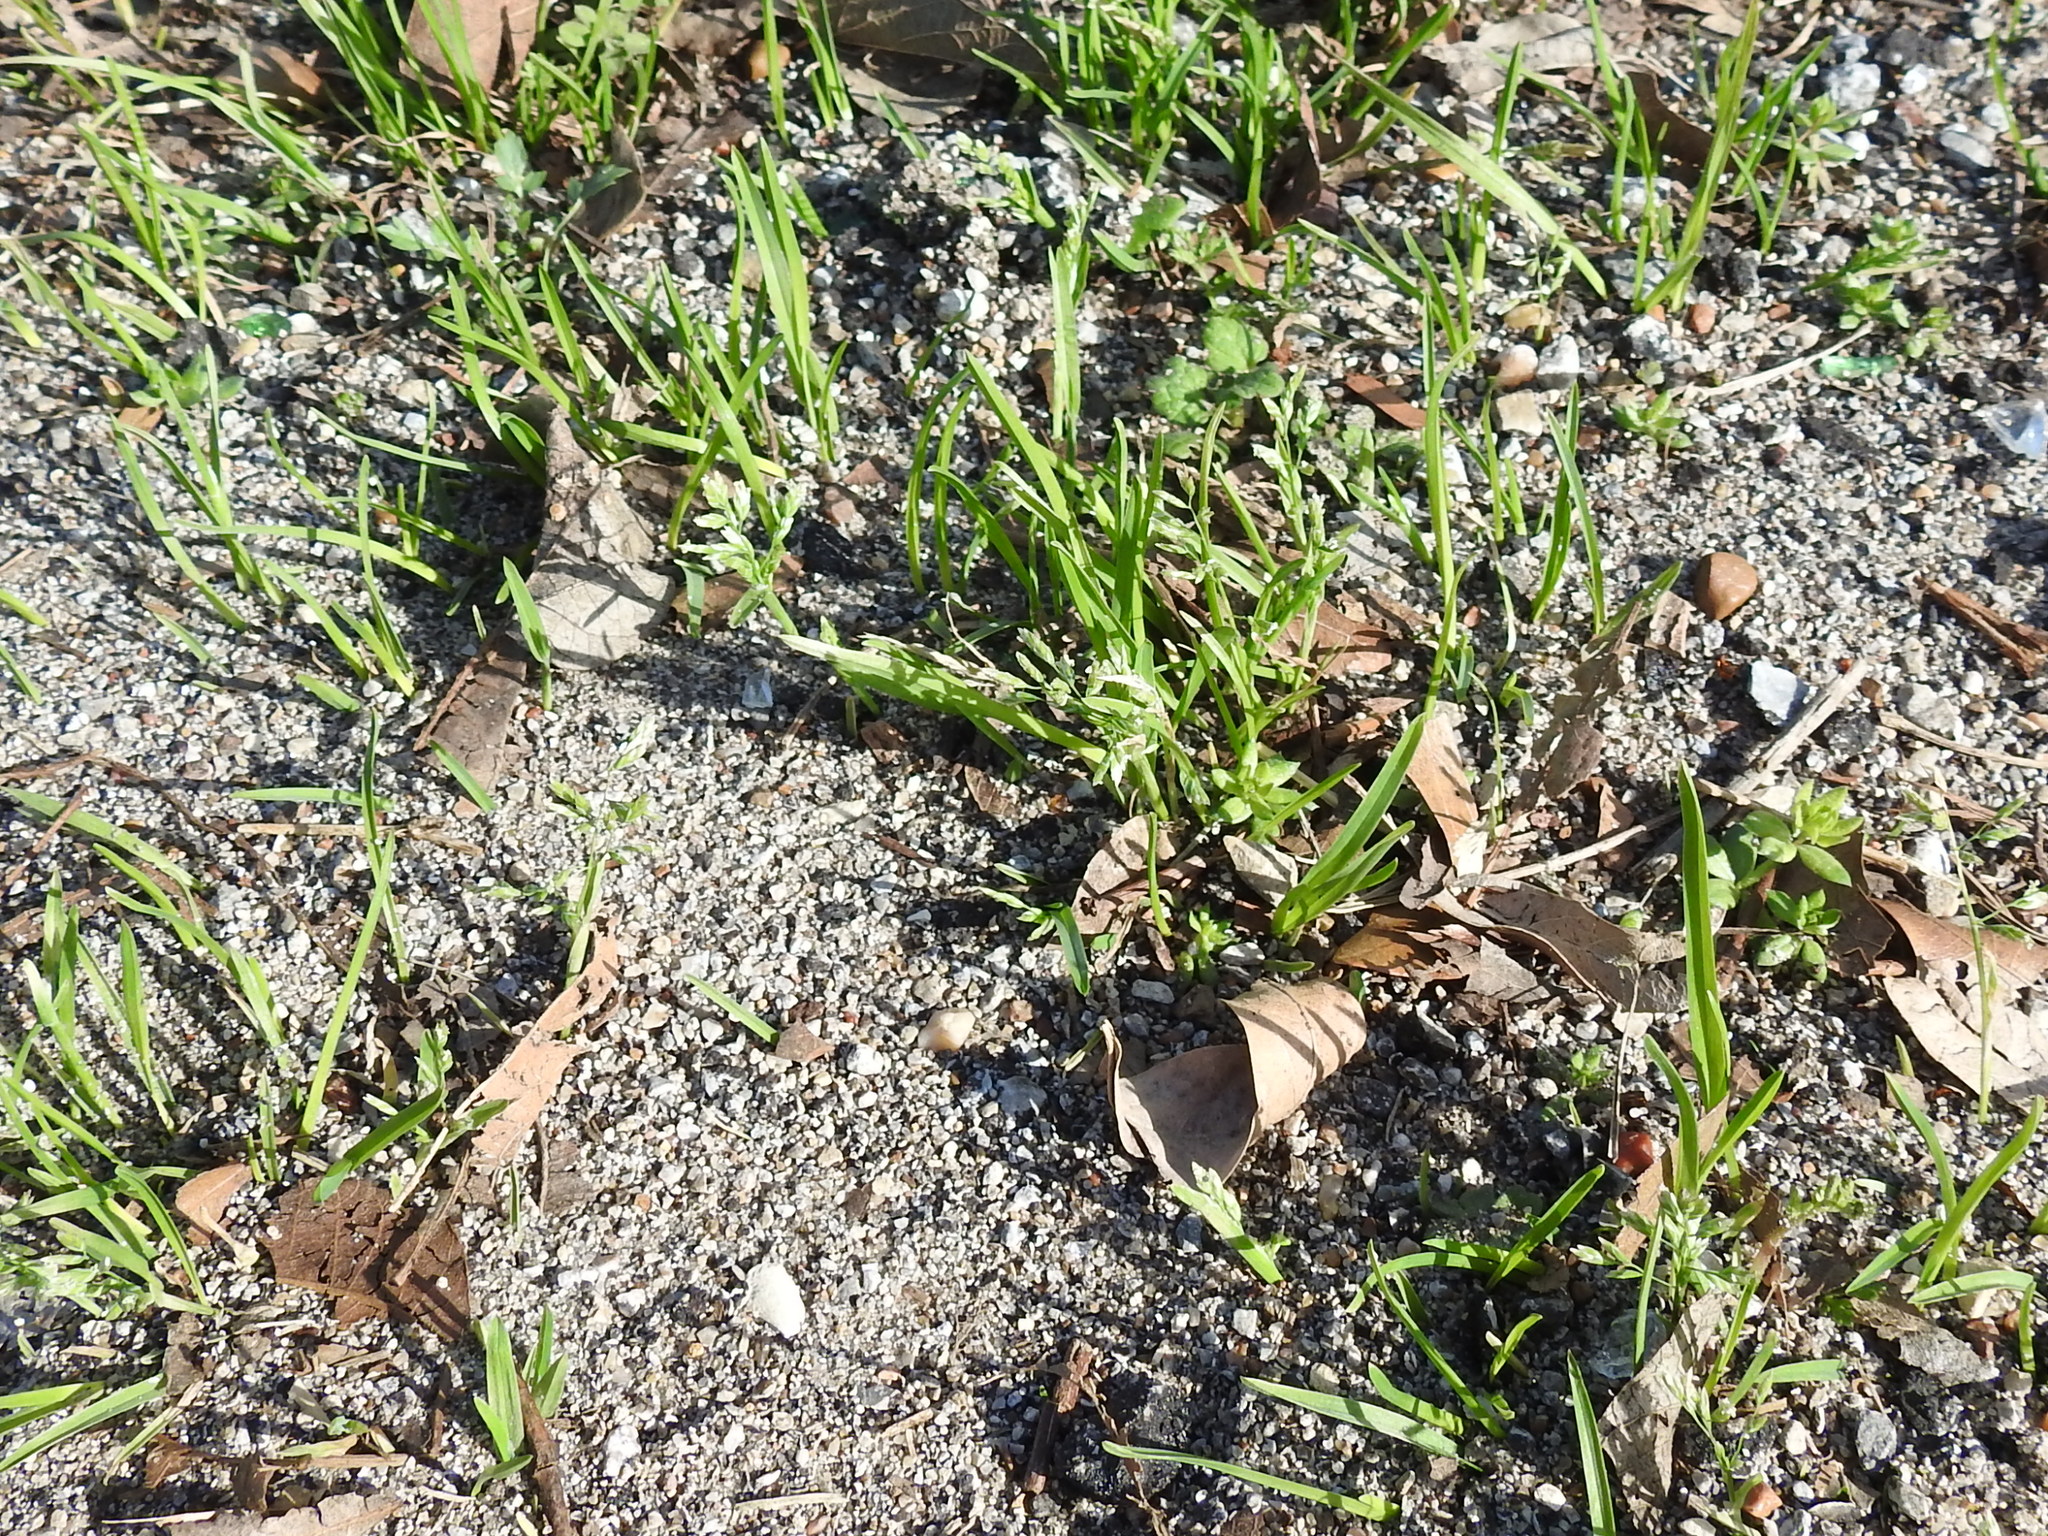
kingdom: Plantae
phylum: Tracheophyta
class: Liliopsida
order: Poales
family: Poaceae
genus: Poa
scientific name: Poa annua
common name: Annual bluegrass
